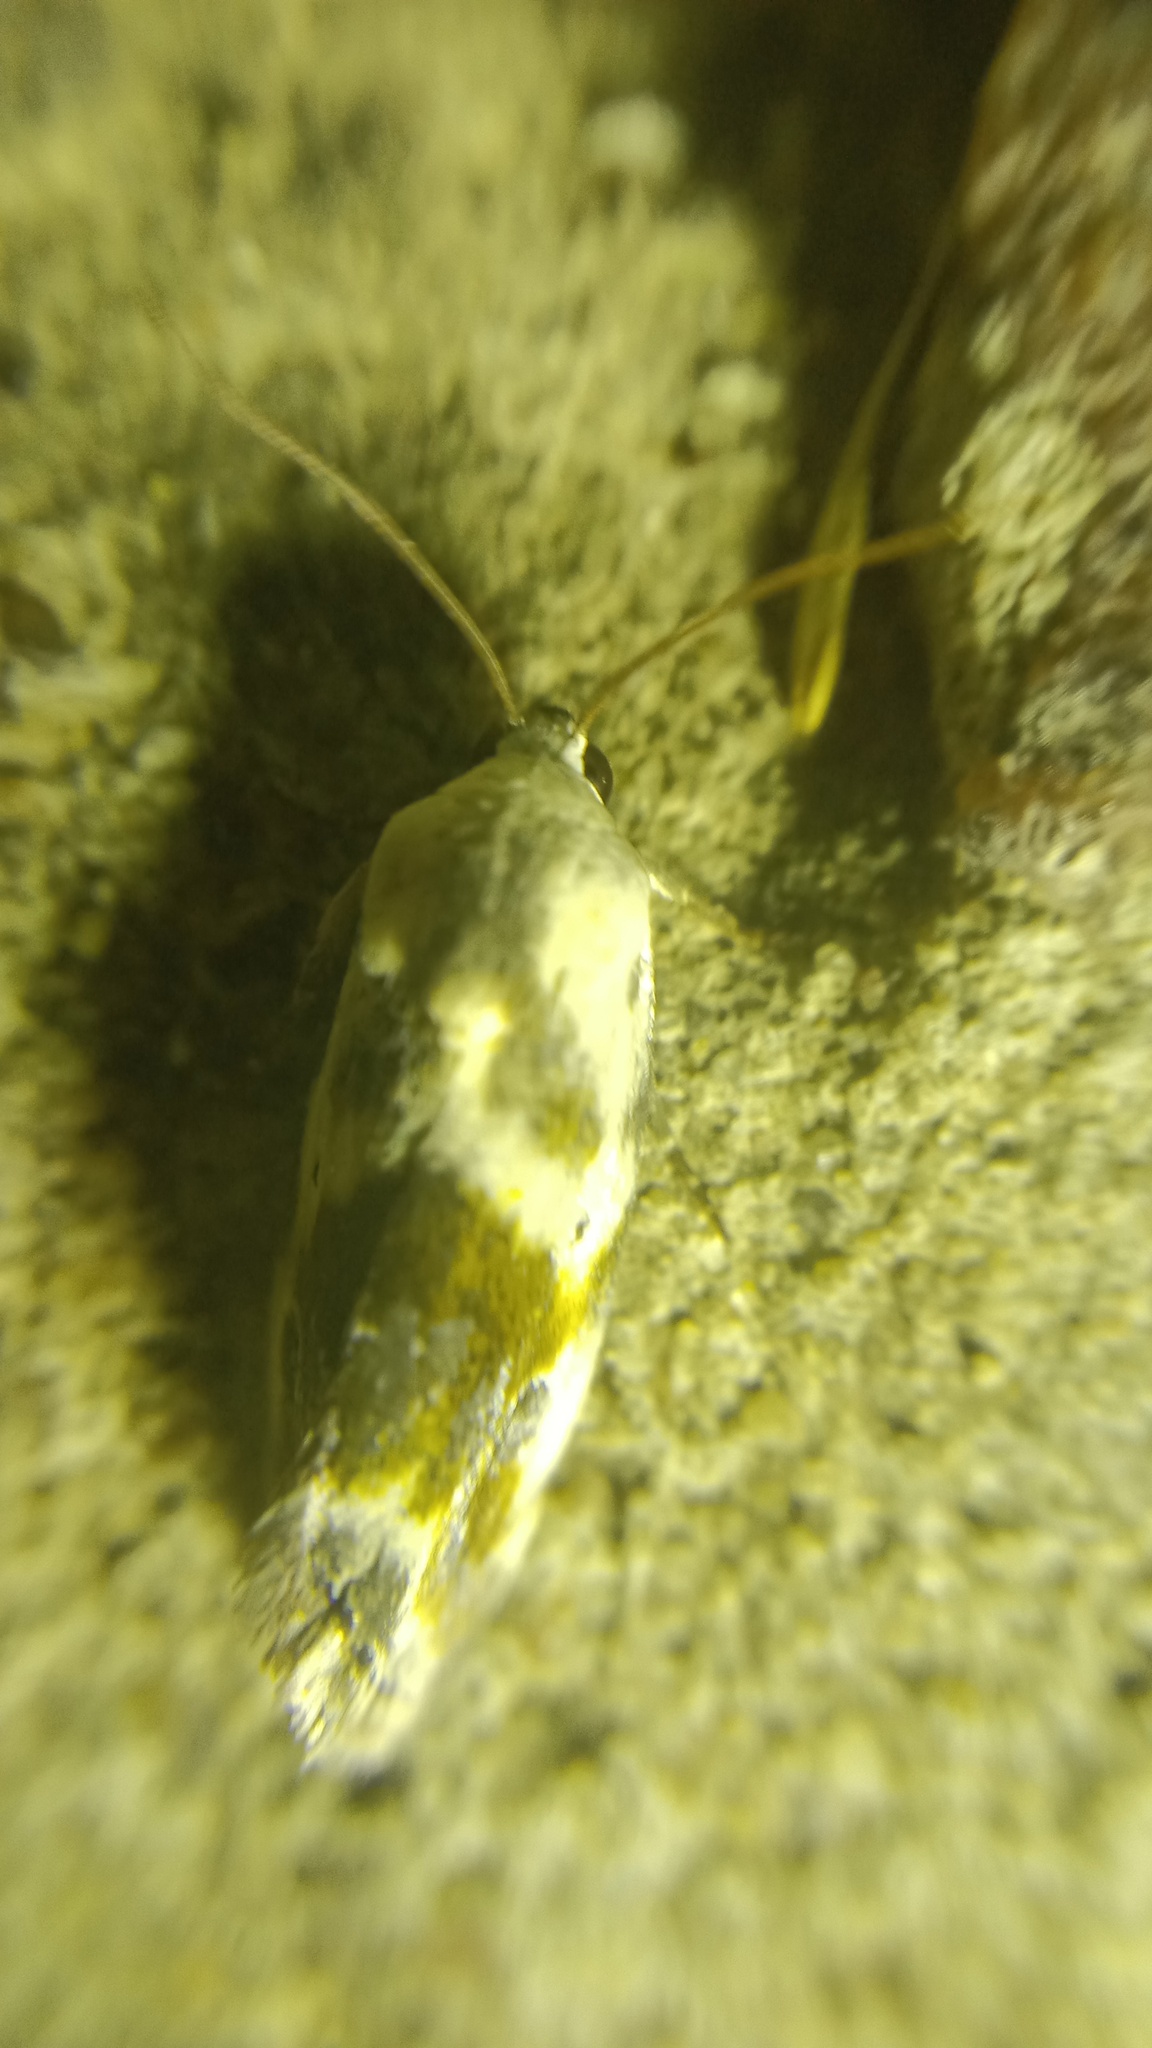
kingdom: Animalia
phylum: Arthropoda
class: Insecta
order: Lepidoptera
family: Noctuidae
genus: Acontia
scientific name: Acontia candefacta
